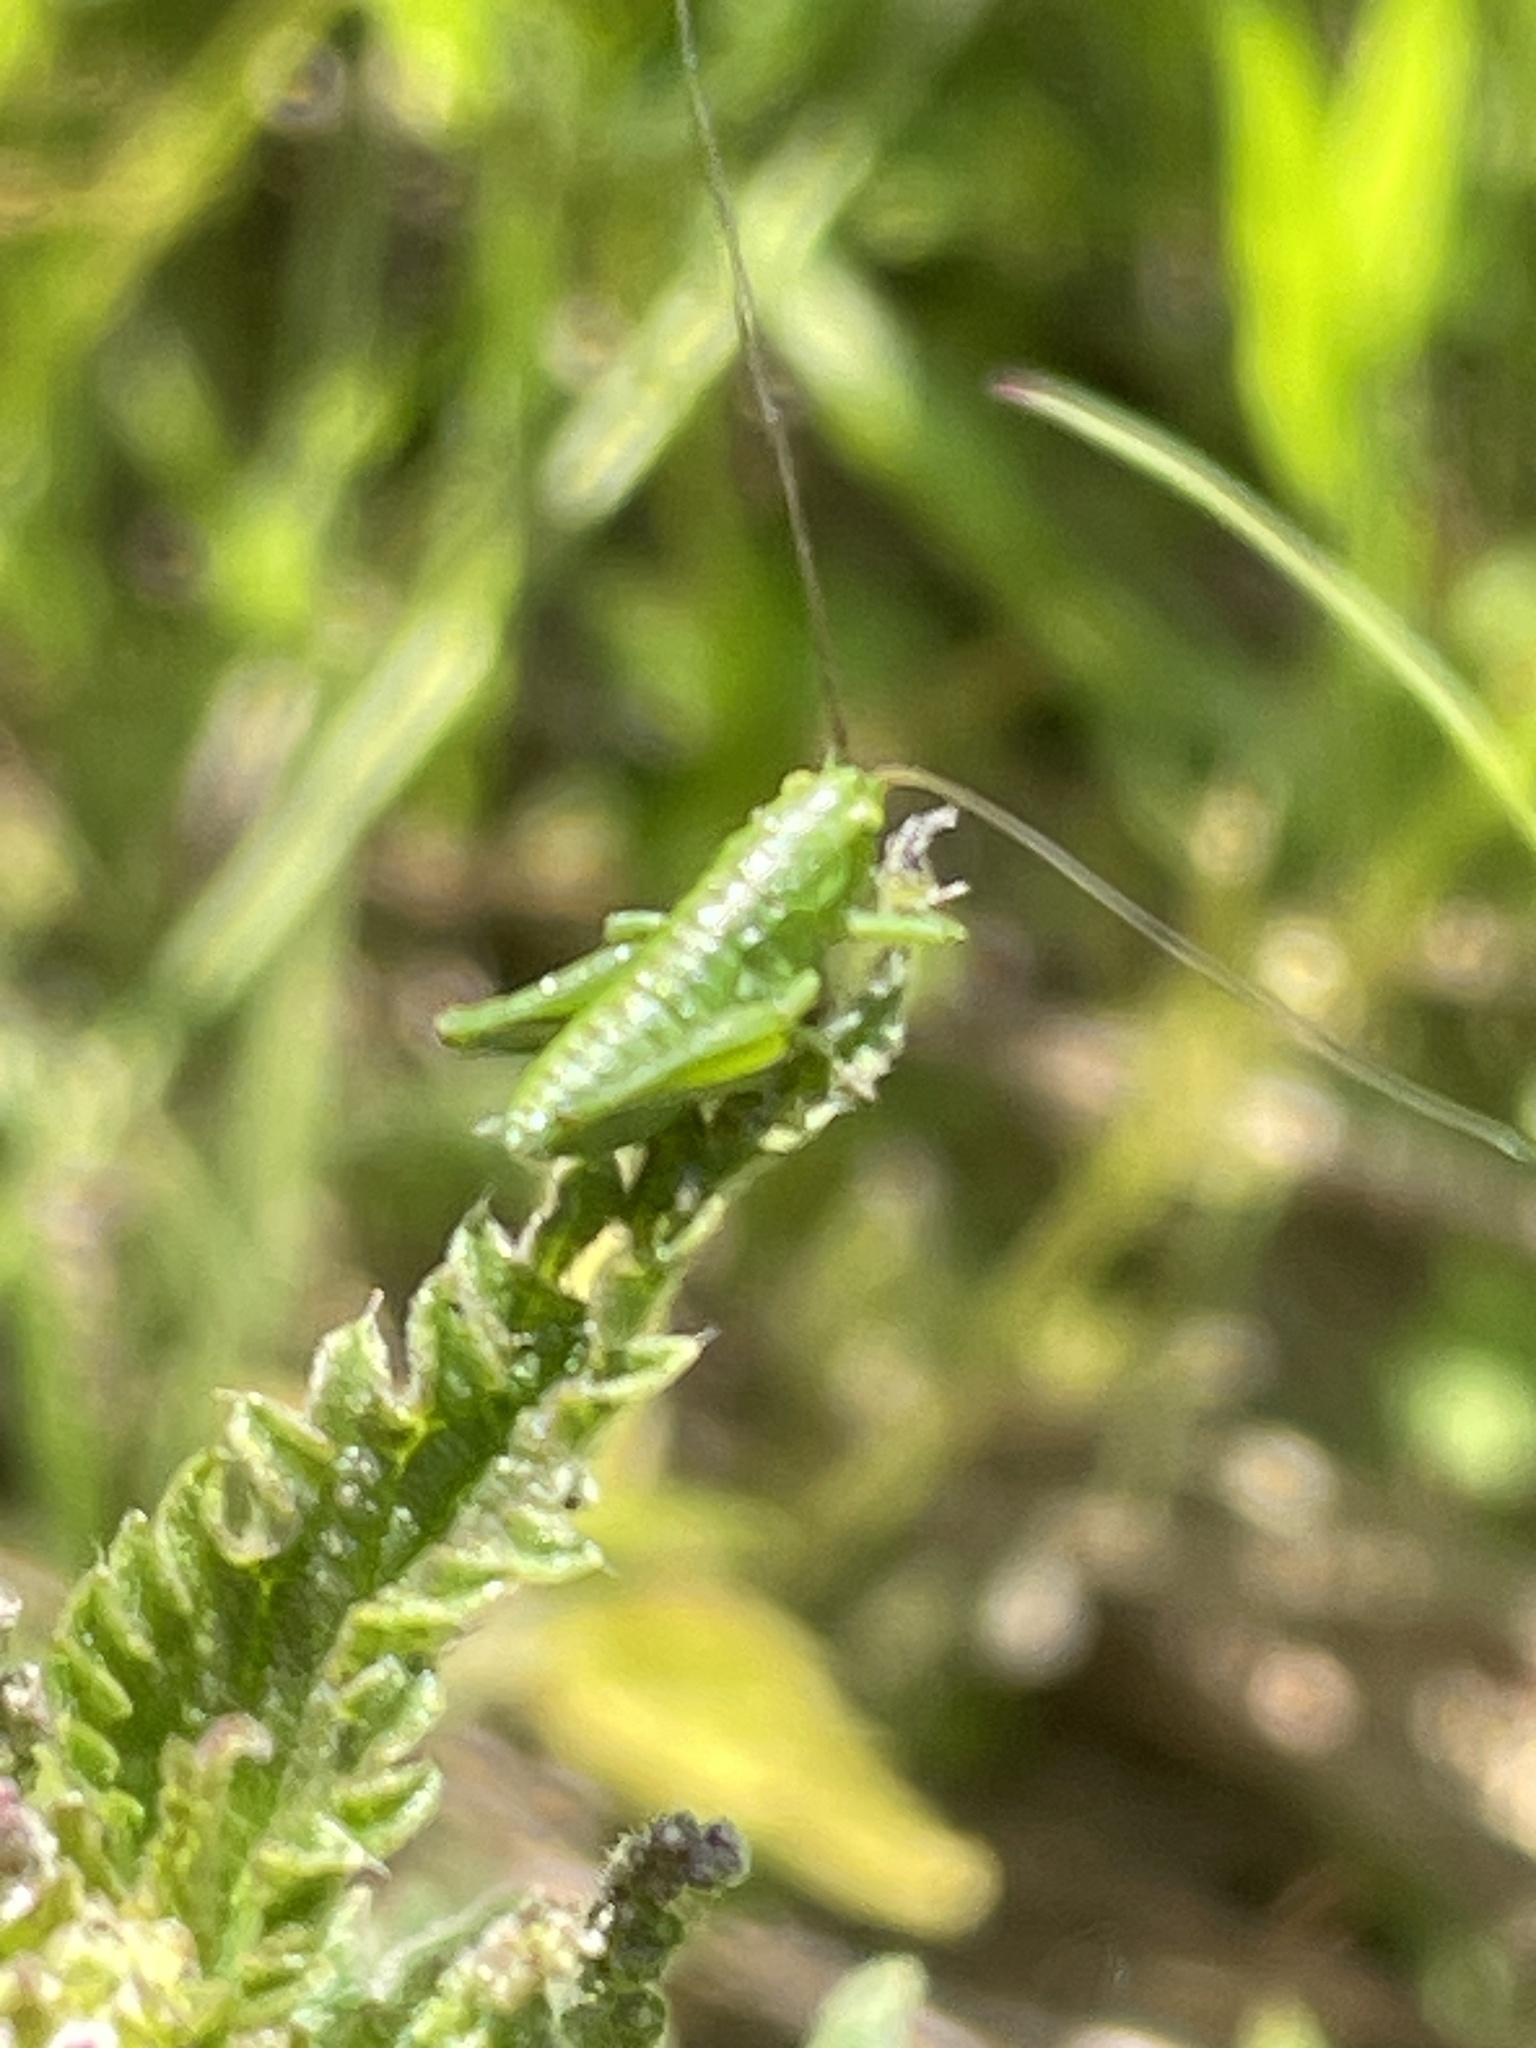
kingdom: Animalia
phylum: Arthropoda
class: Insecta
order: Orthoptera
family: Tettigoniidae
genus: Tettigonia
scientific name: Tettigonia viridissima
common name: Great green bush-cricket
